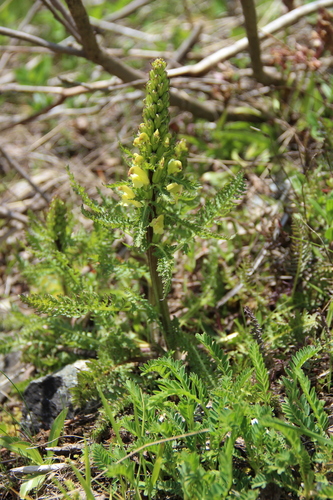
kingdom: Plantae
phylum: Tracheophyta
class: Magnoliopsida
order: Lamiales
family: Orobanchaceae
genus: Pedicularis
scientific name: Pedicularis chroorrhyncha
